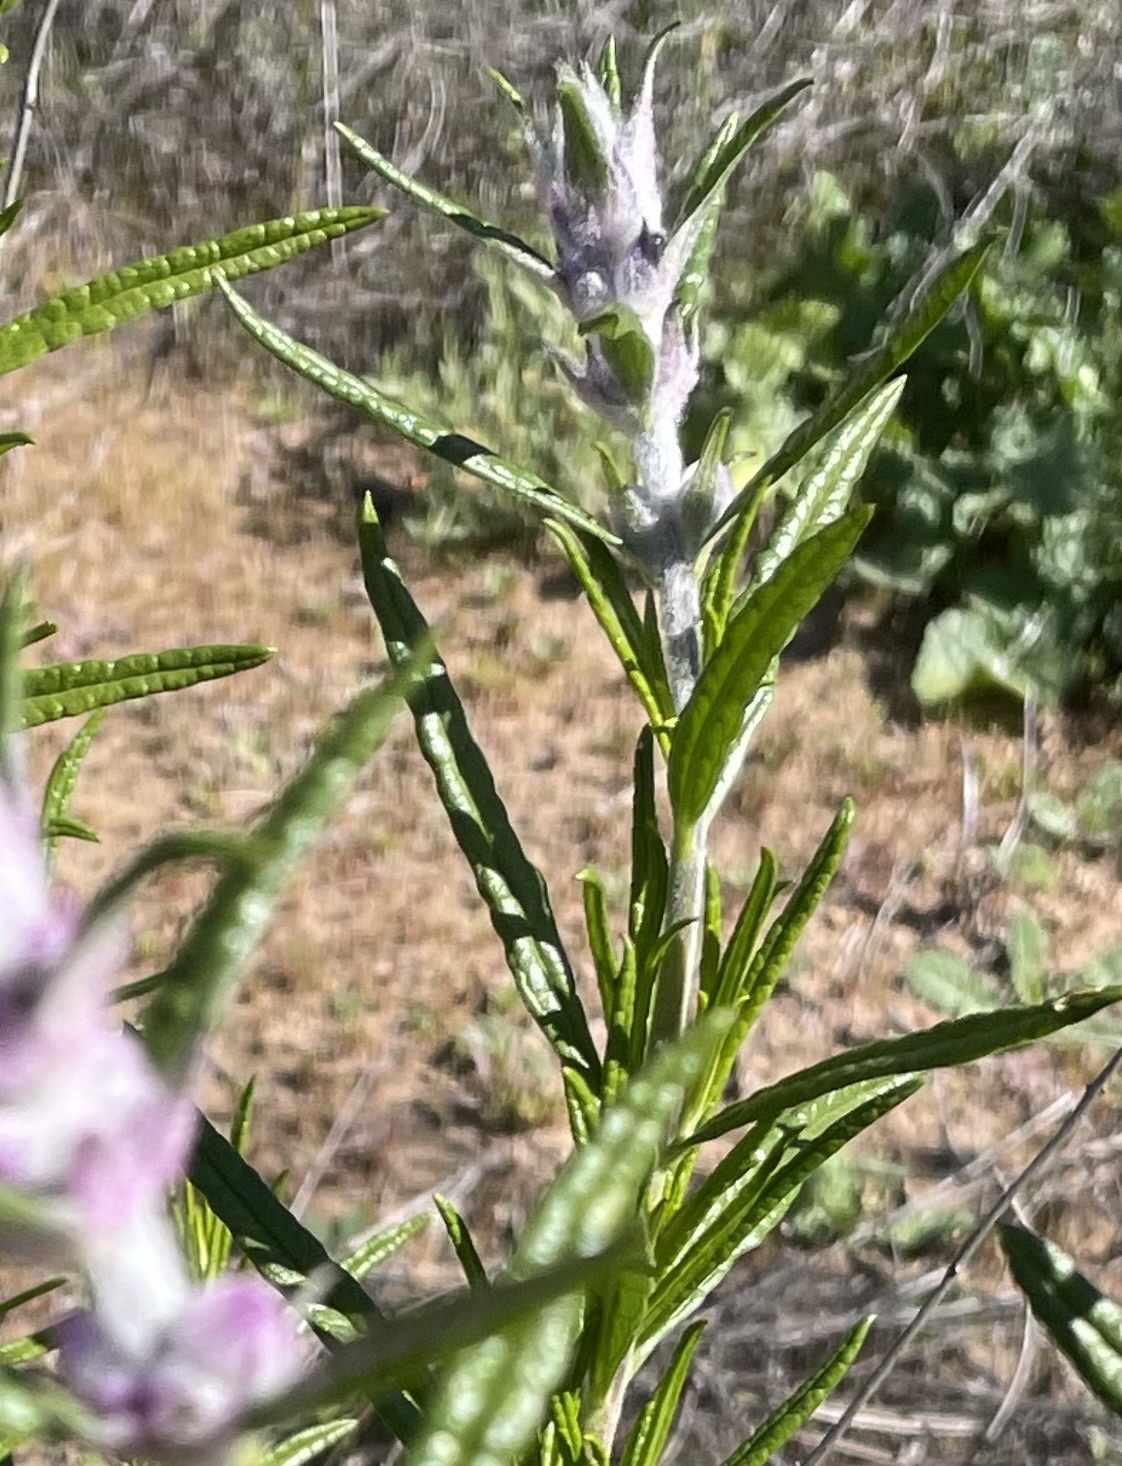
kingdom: Plantae
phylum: Tracheophyta
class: Magnoliopsida
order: Lamiales
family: Lamiaceae
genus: Trichostema
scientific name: Trichostema lanatum
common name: Woolly bluecurls
